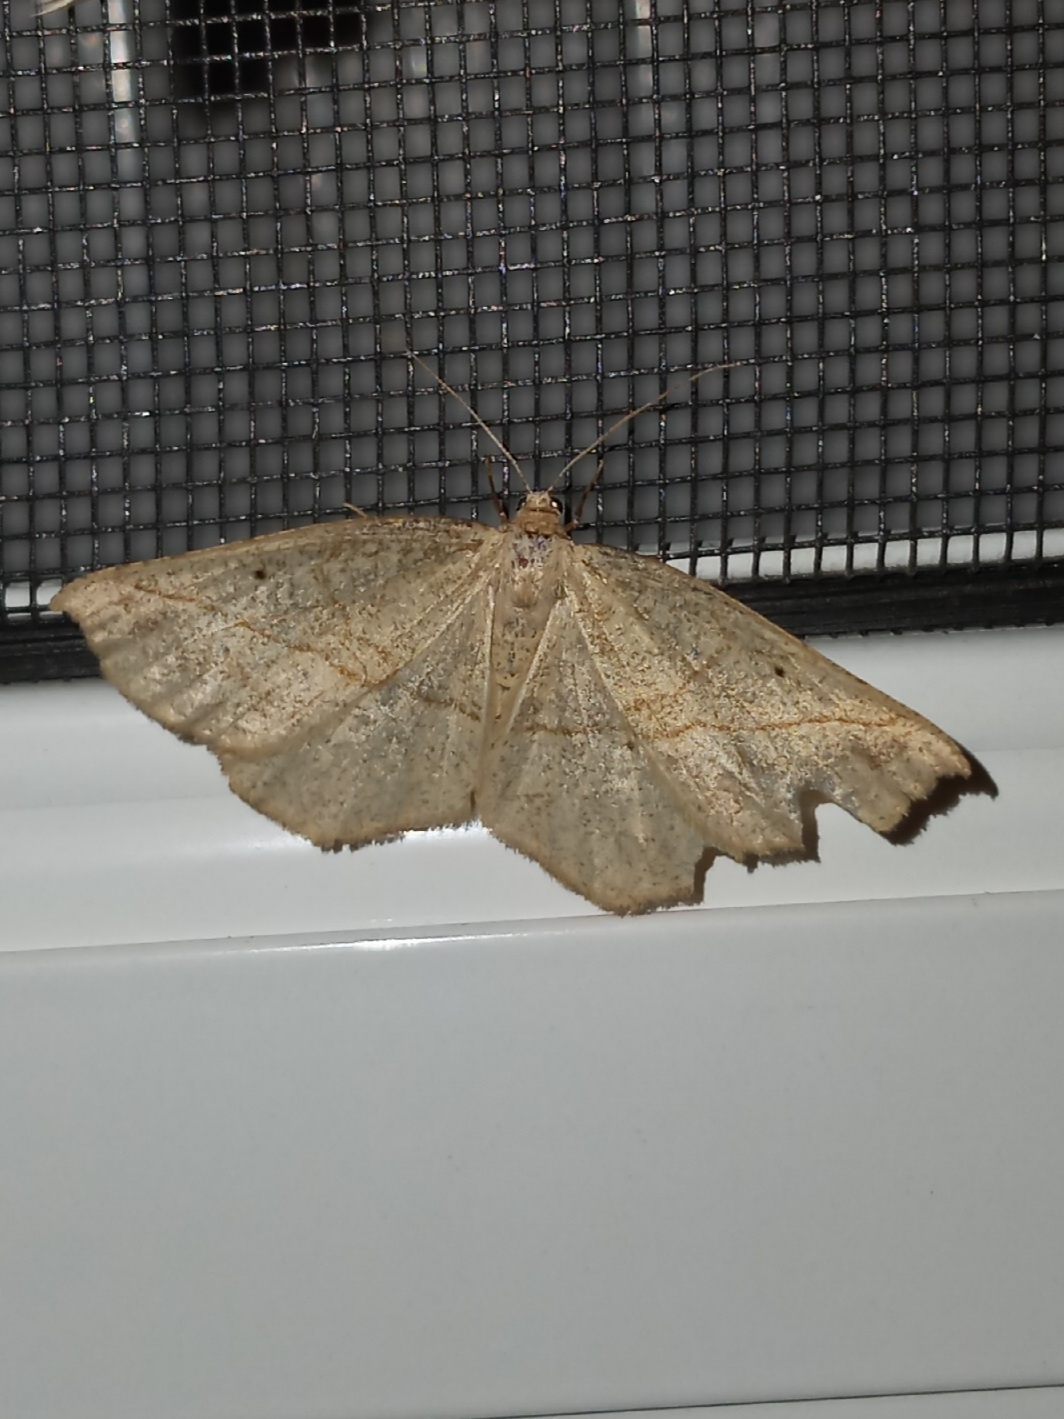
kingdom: Animalia
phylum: Arthropoda
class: Insecta
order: Lepidoptera
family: Geometridae
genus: Eusarca
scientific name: Eusarca confusaria
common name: Confused eusarca
